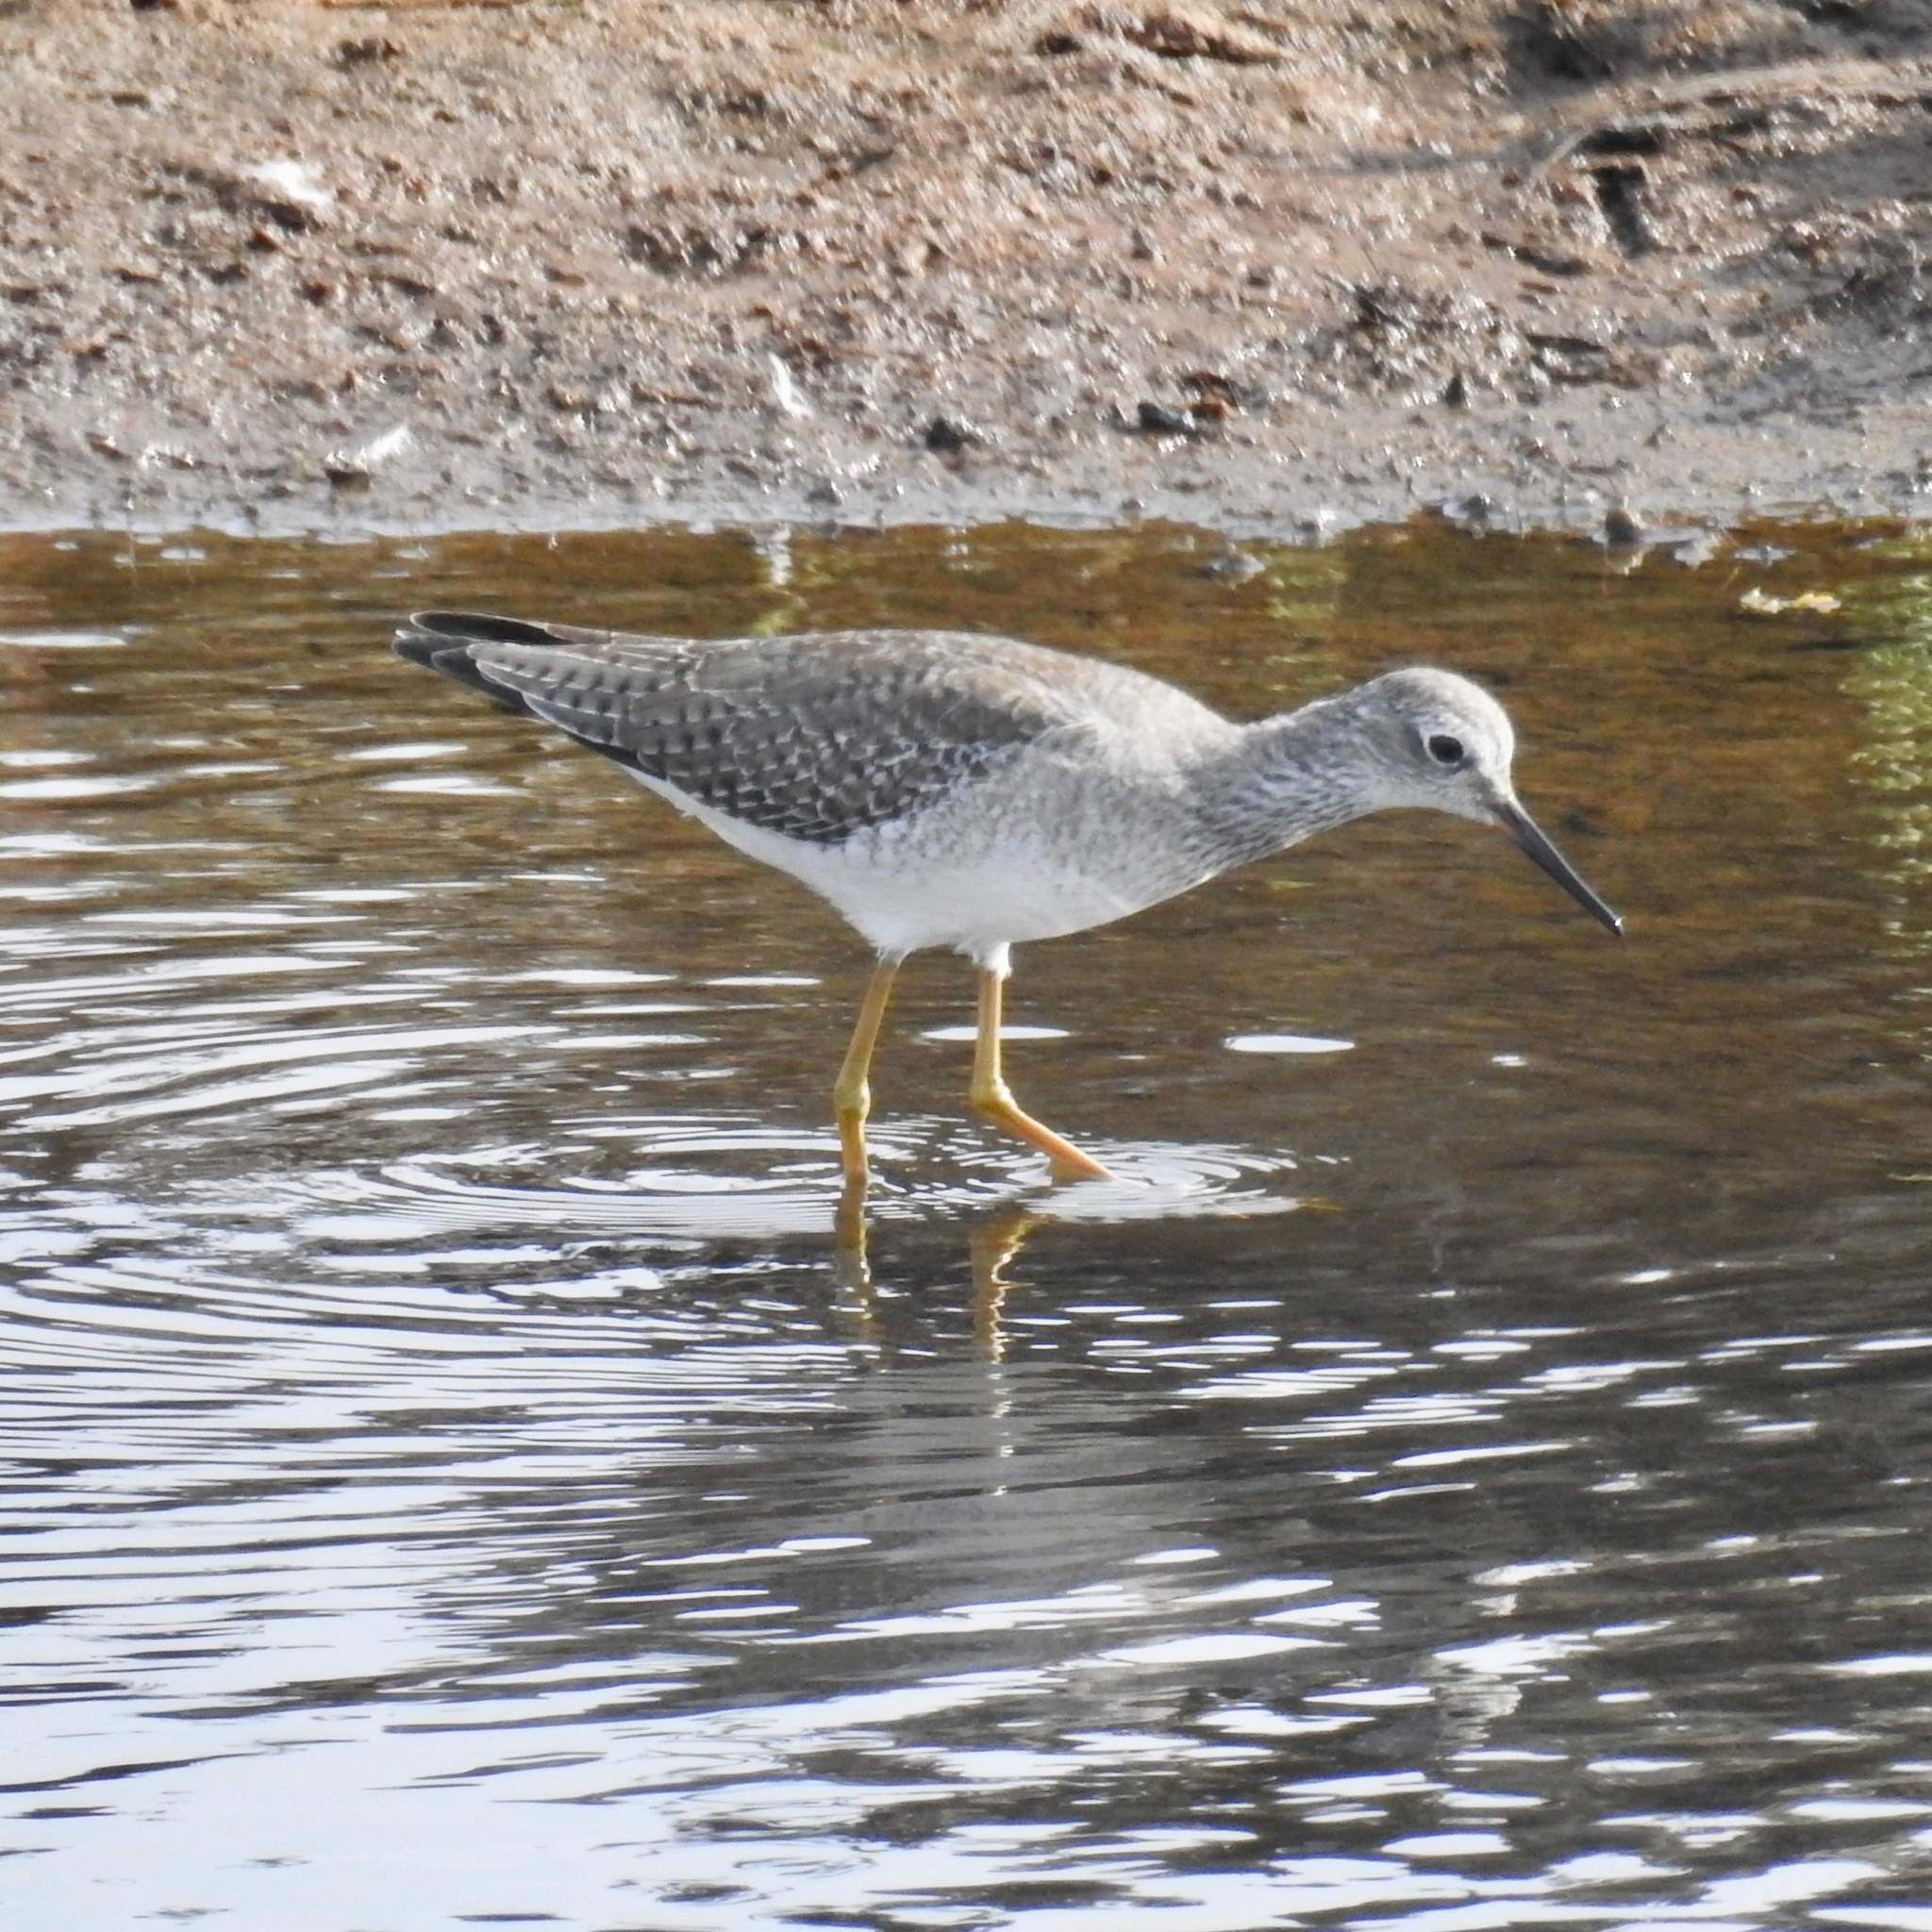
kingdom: Animalia
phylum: Chordata
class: Aves
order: Charadriiformes
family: Scolopacidae
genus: Tringa
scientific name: Tringa flavipes
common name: Lesser yellowlegs
